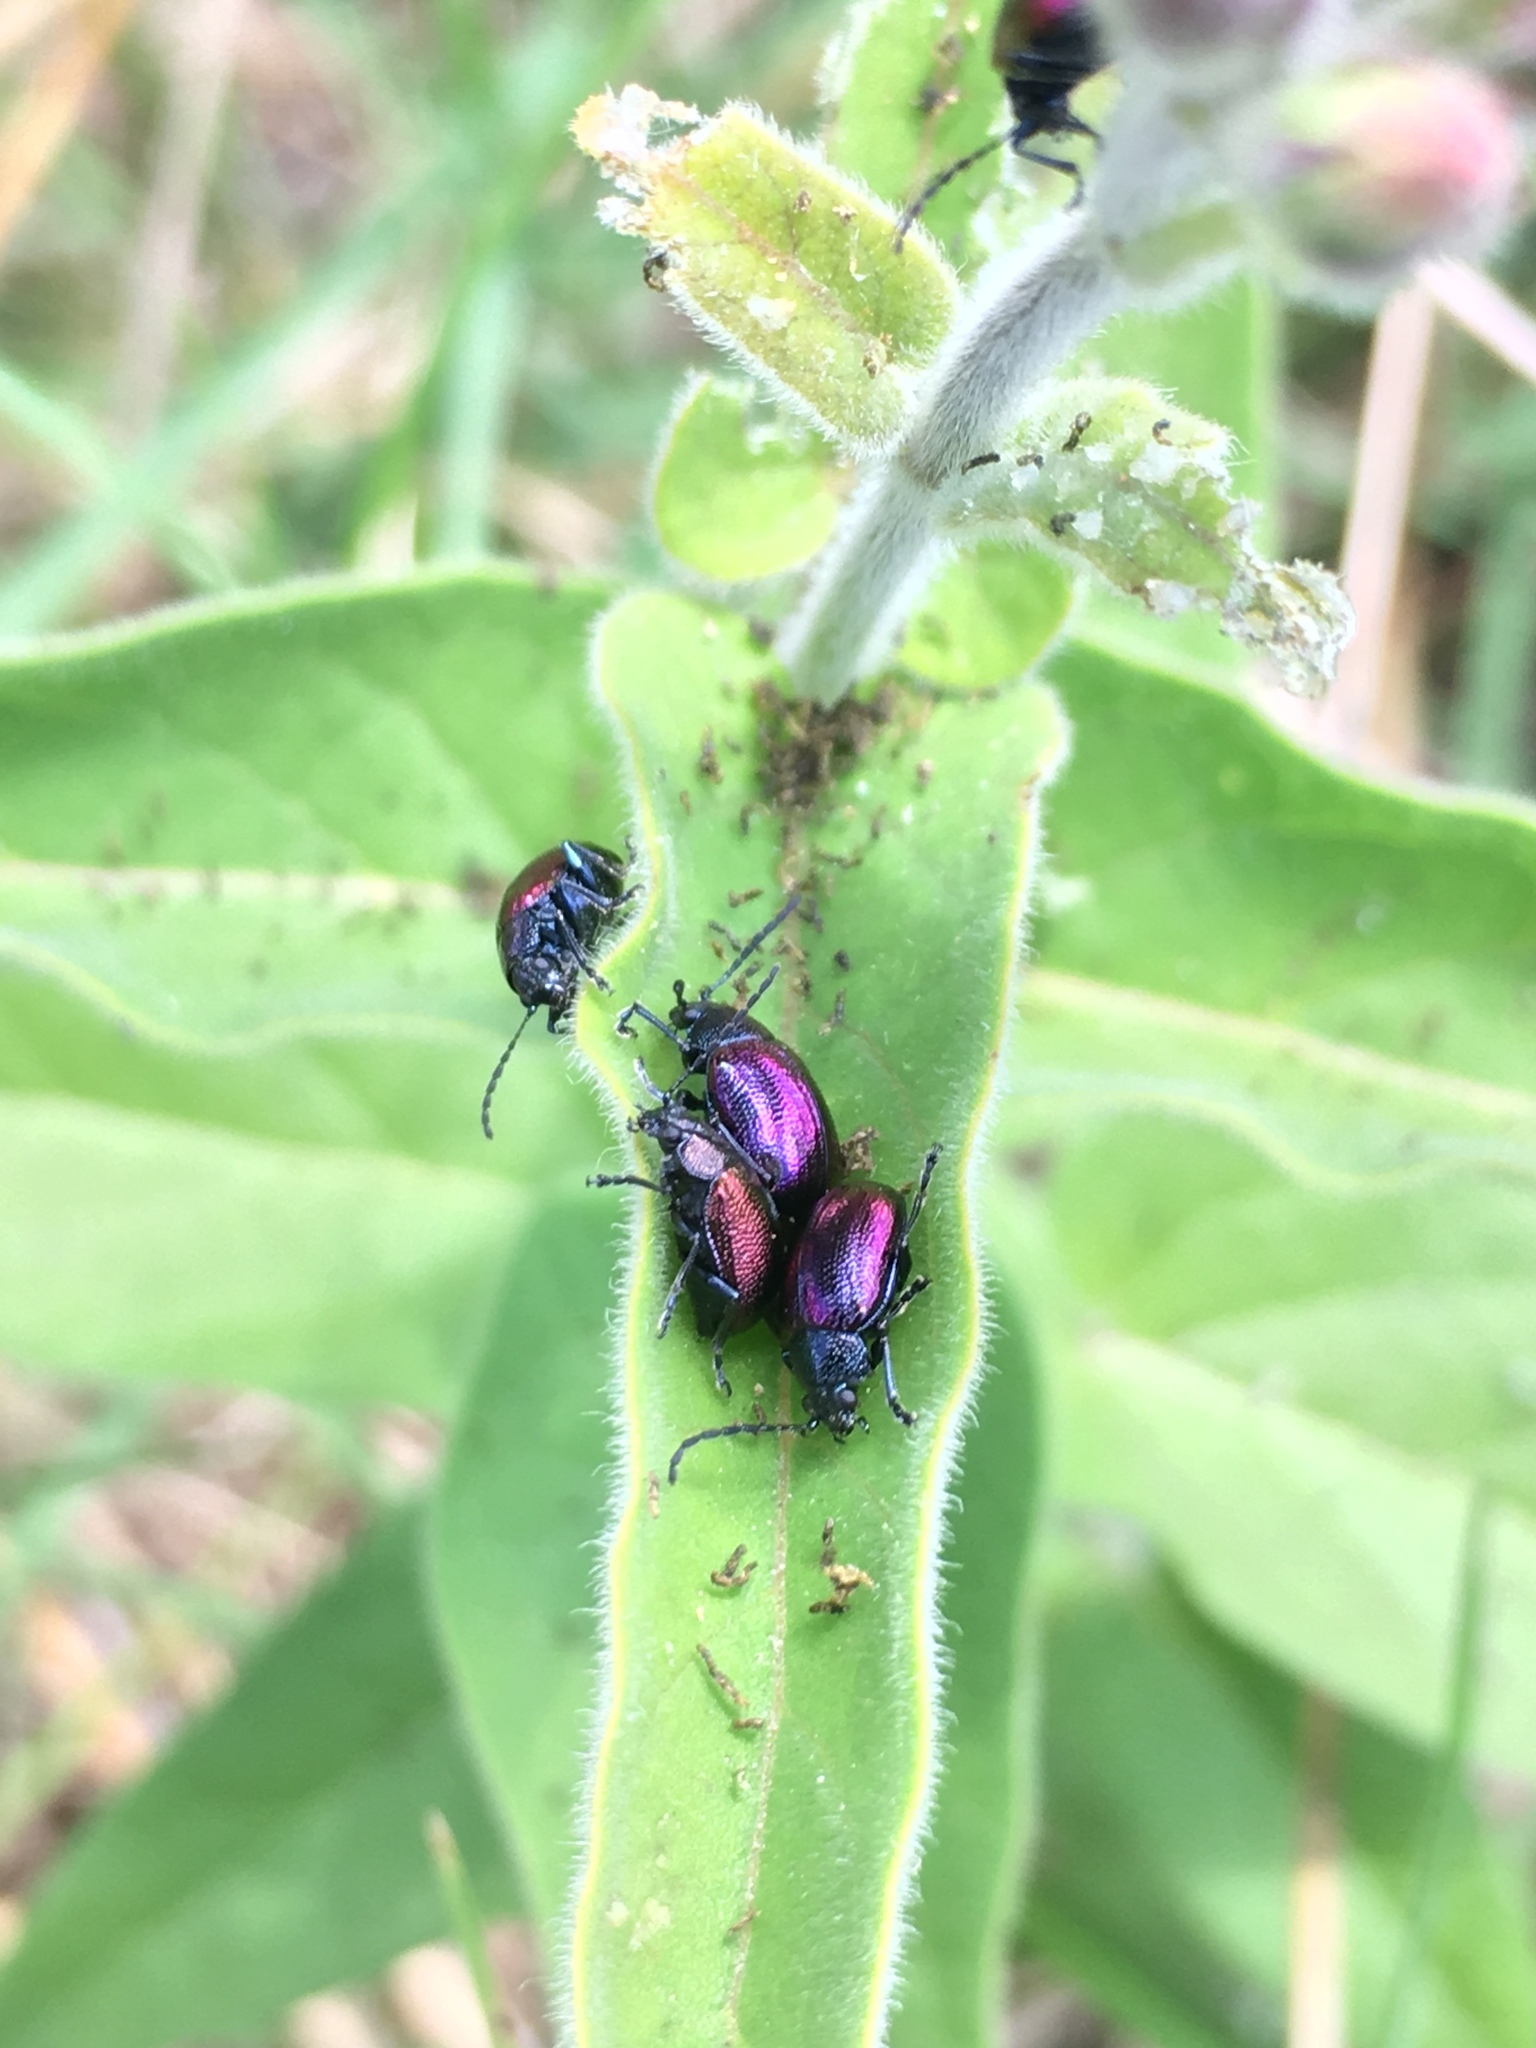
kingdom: Animalia
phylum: Arthropoda
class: Insecta
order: Coleoptera
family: Chrysomelidae
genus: Freudeita
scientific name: Freudeita
